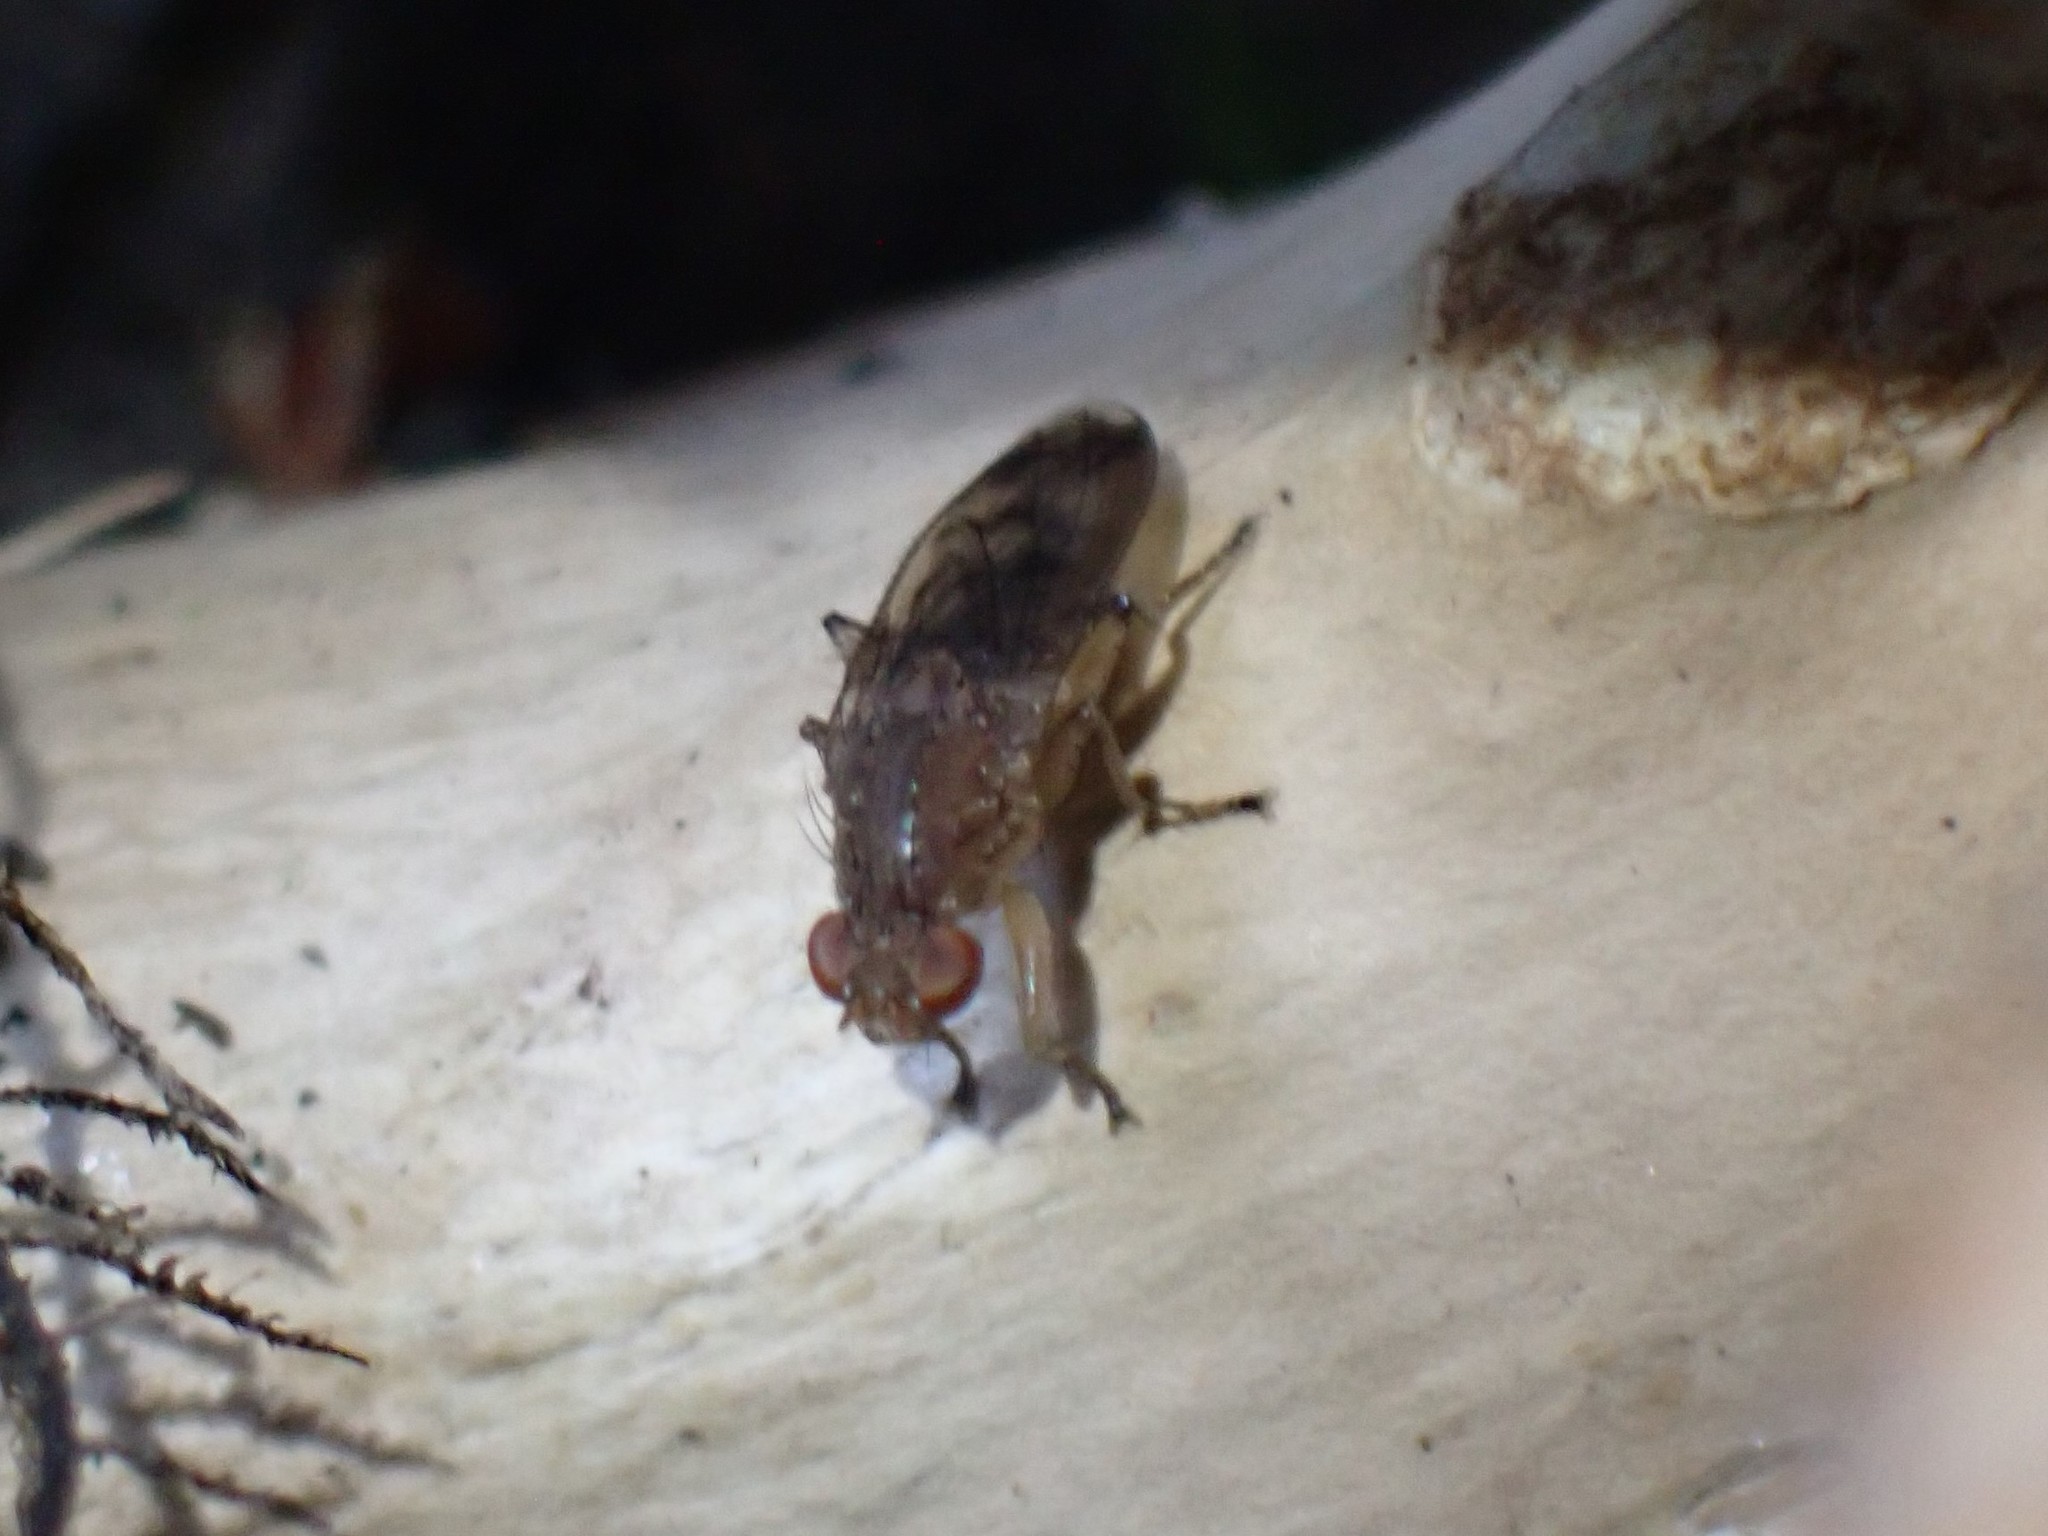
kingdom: Animalia
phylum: Arthropoda
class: Insecta
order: Diptera
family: Heleomyzidae
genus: Suillia
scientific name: Suillia variegata
